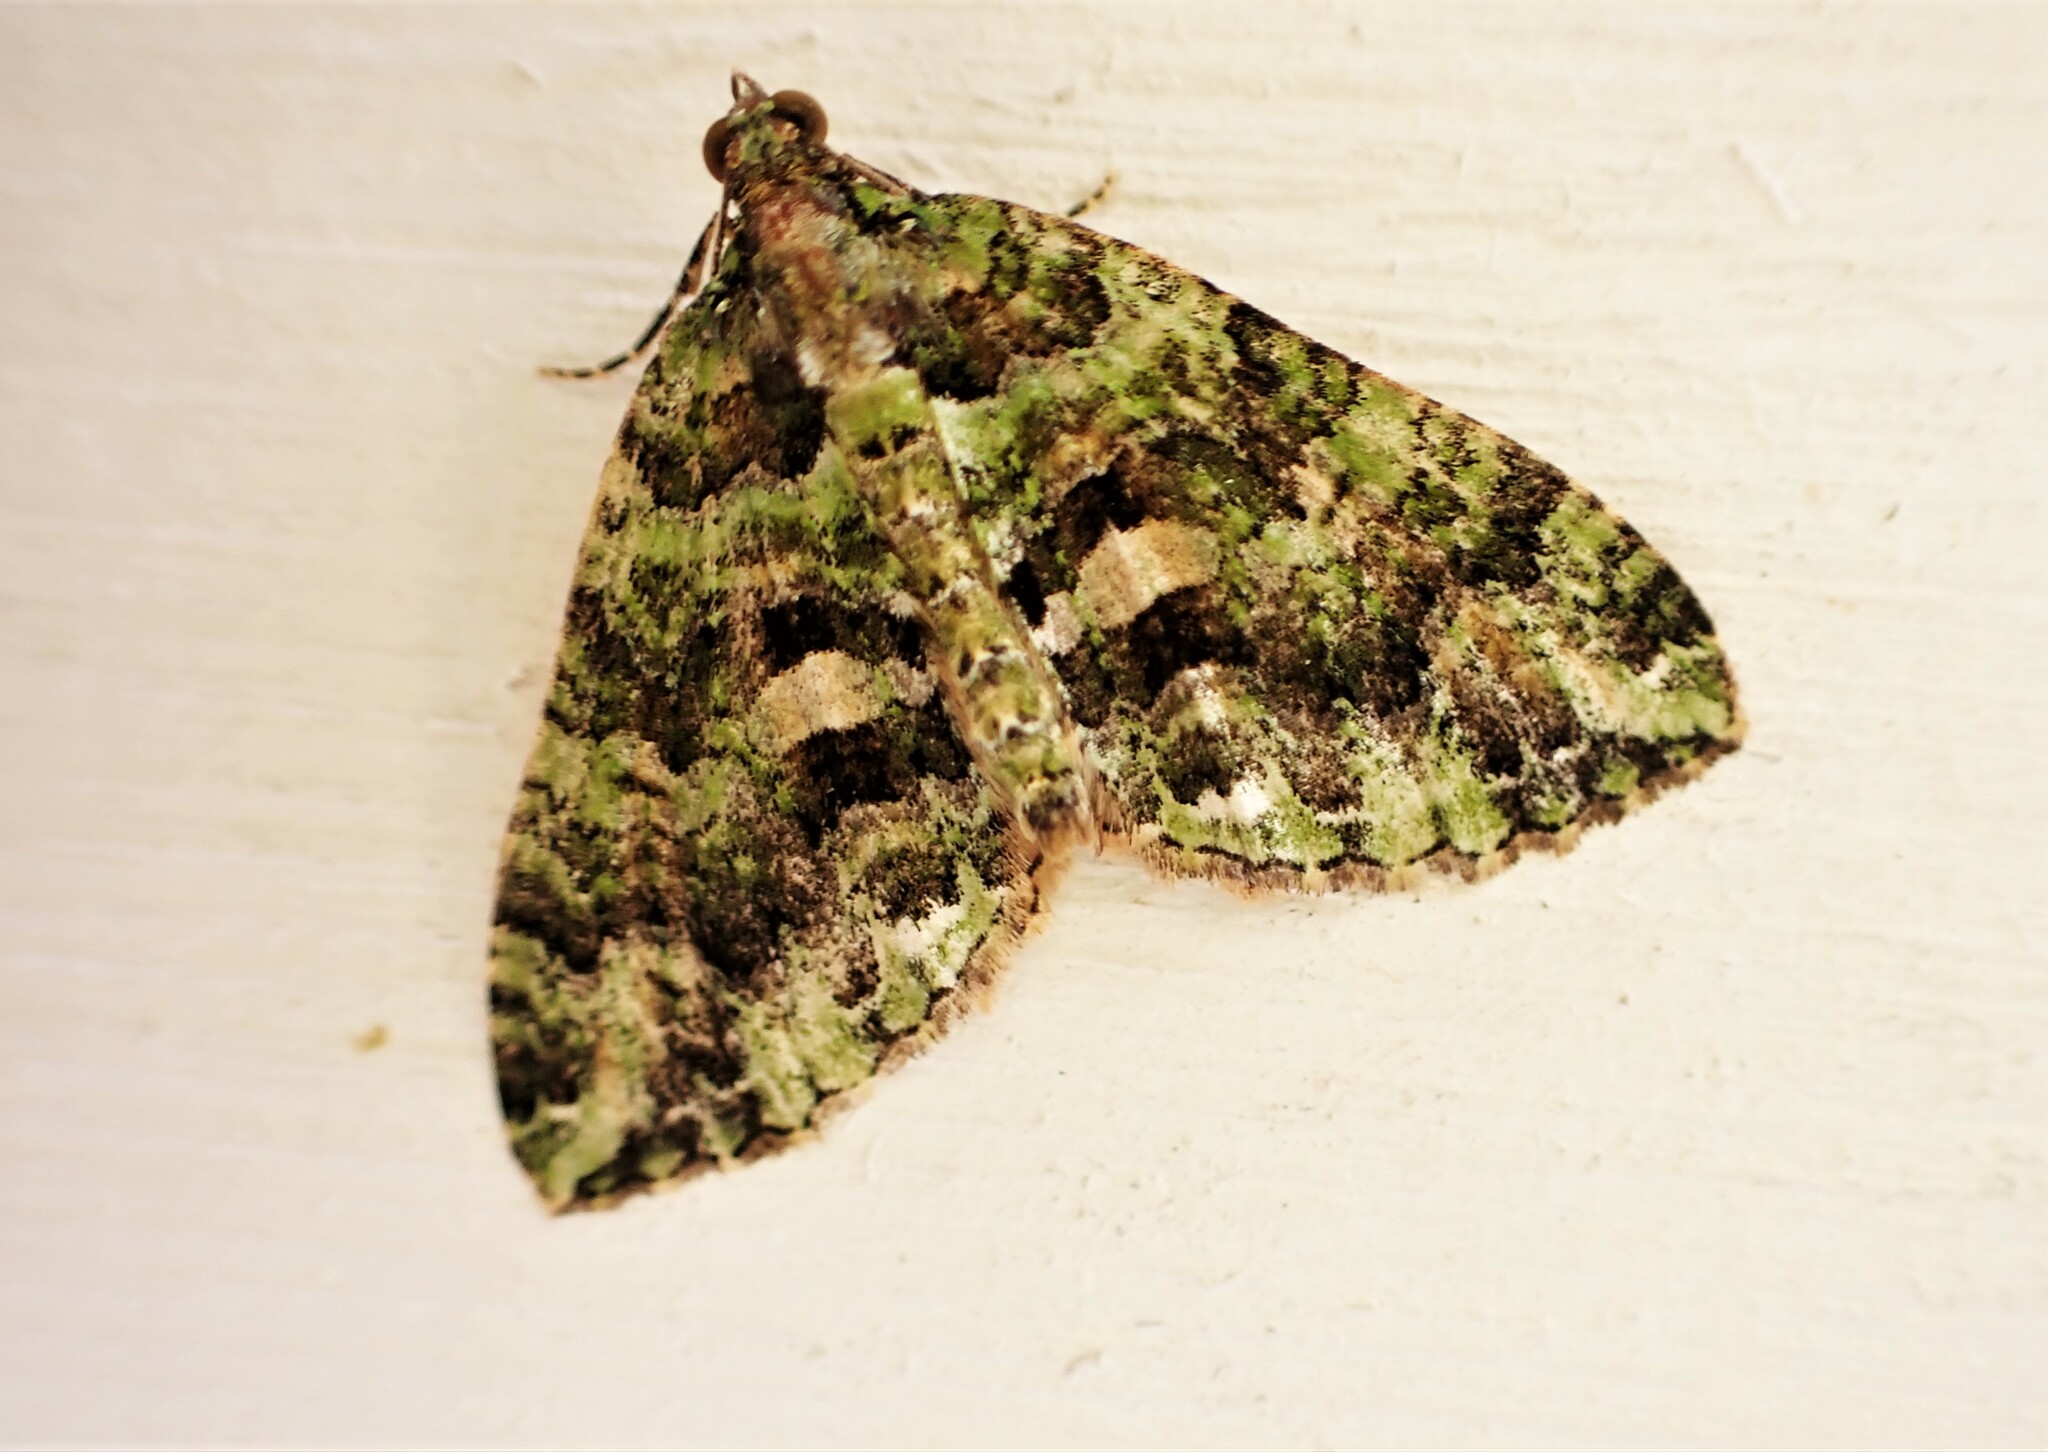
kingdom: Animalia
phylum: Arthropoda
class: Insecta
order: Lepidoptera
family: Geometridae
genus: Austrocidaria
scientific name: Austrocidaria similata
